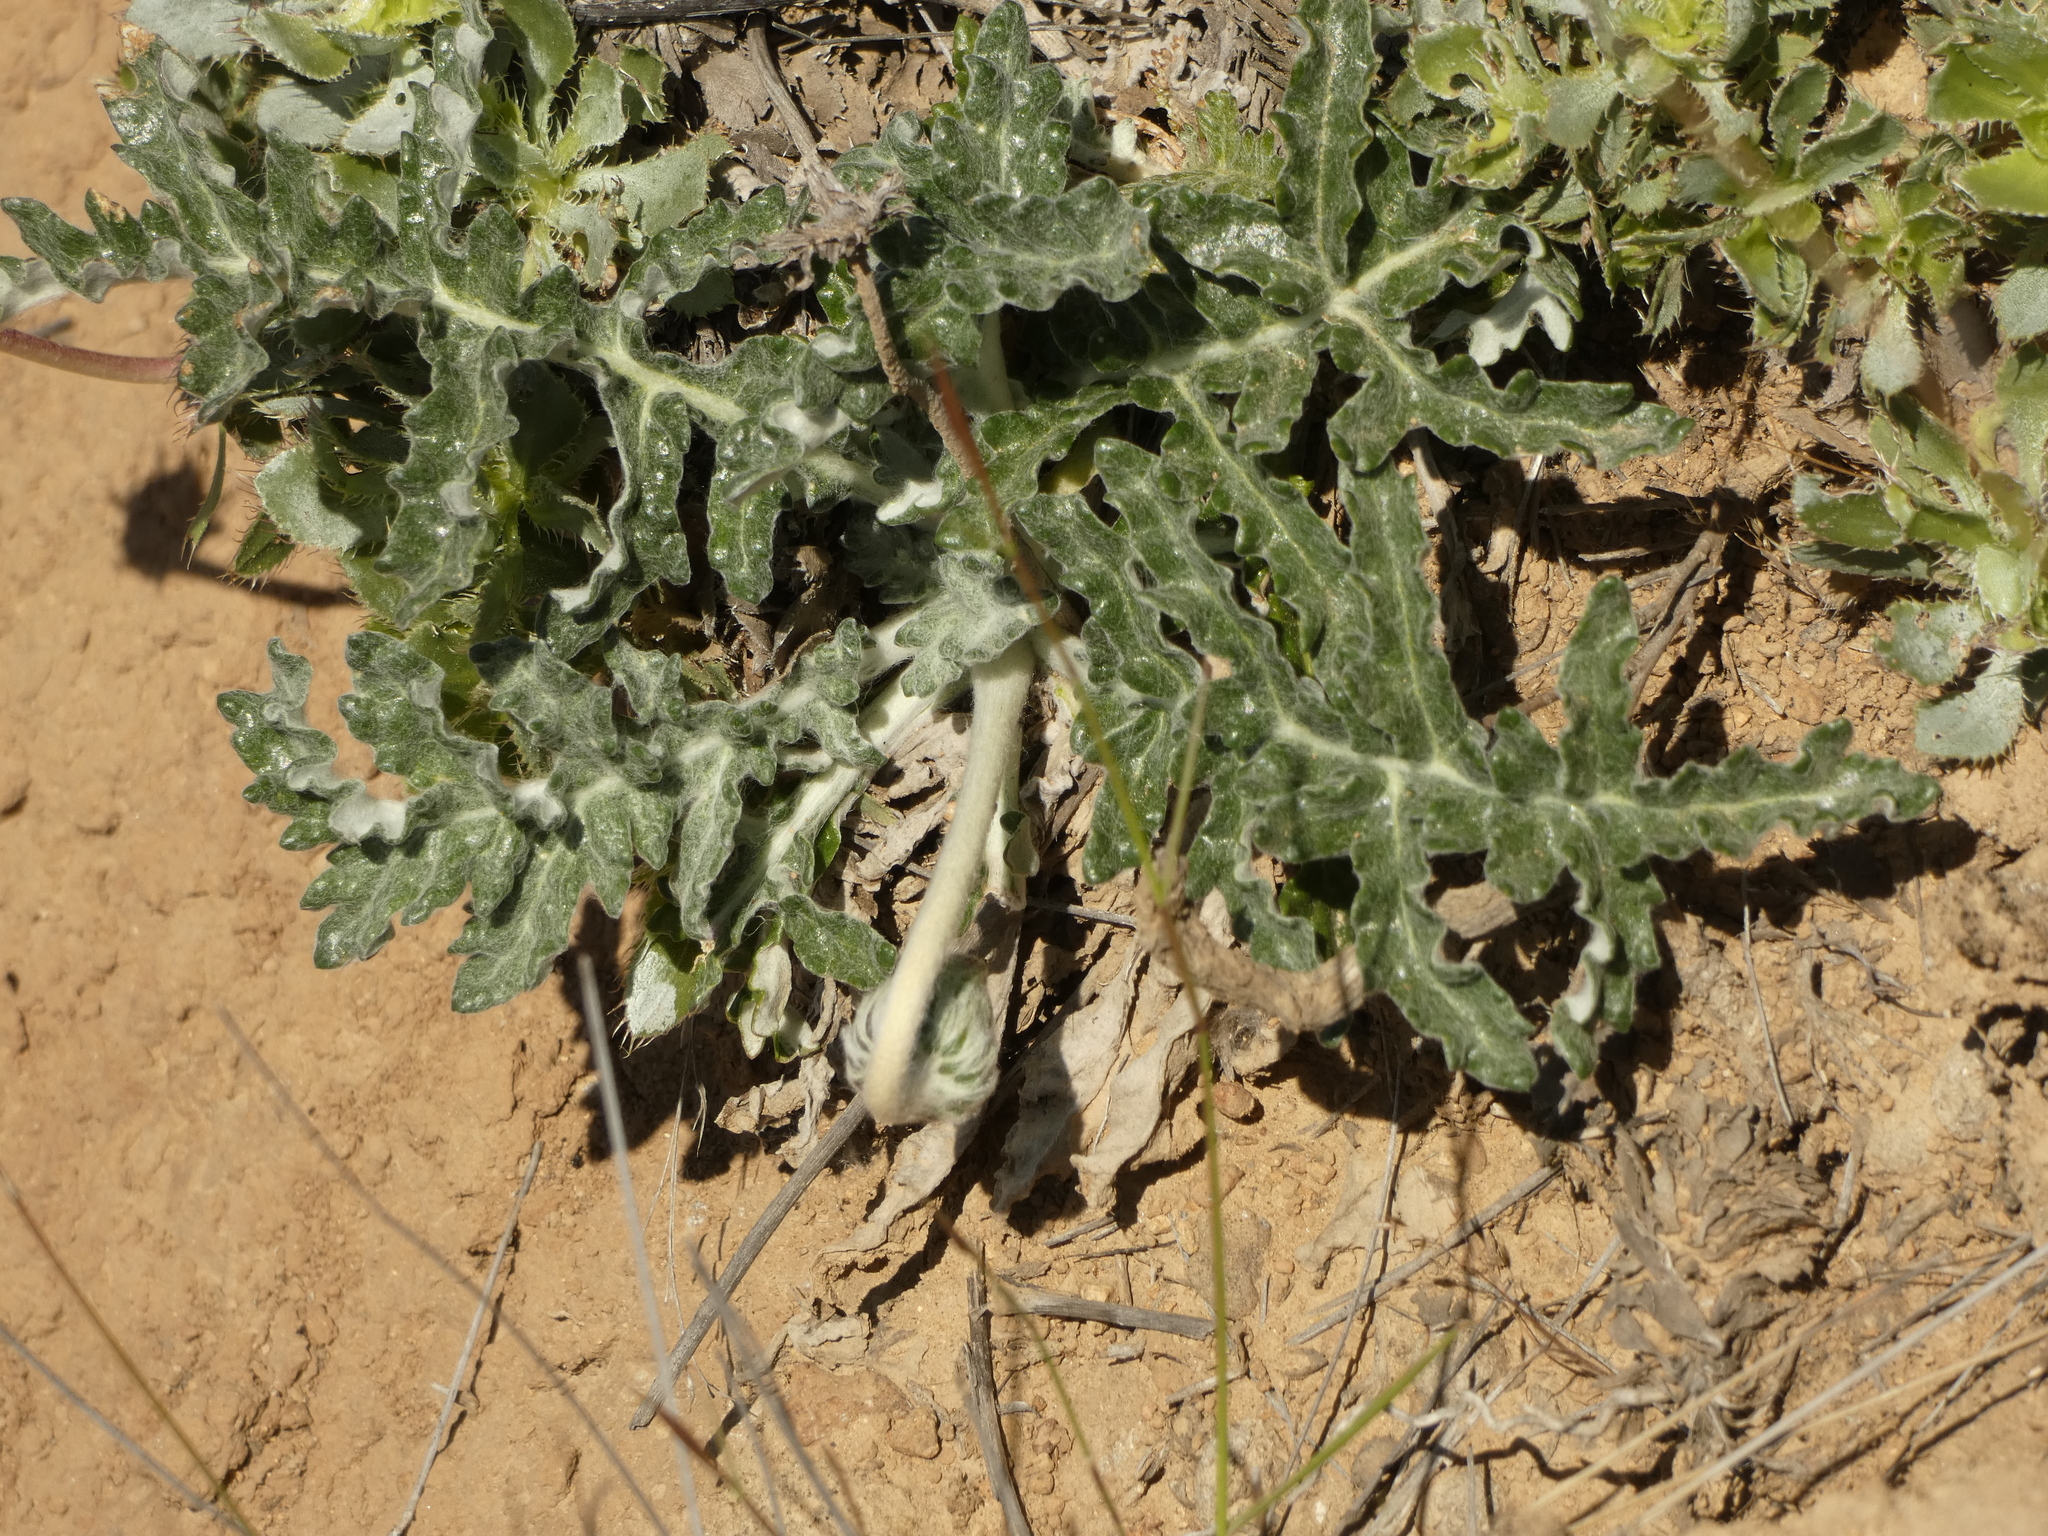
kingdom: Plantae
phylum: Tracheophyta
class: Magnoliopsida
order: Asterales
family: Asteraceae
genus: Trichocline
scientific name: Trichocline aurea
